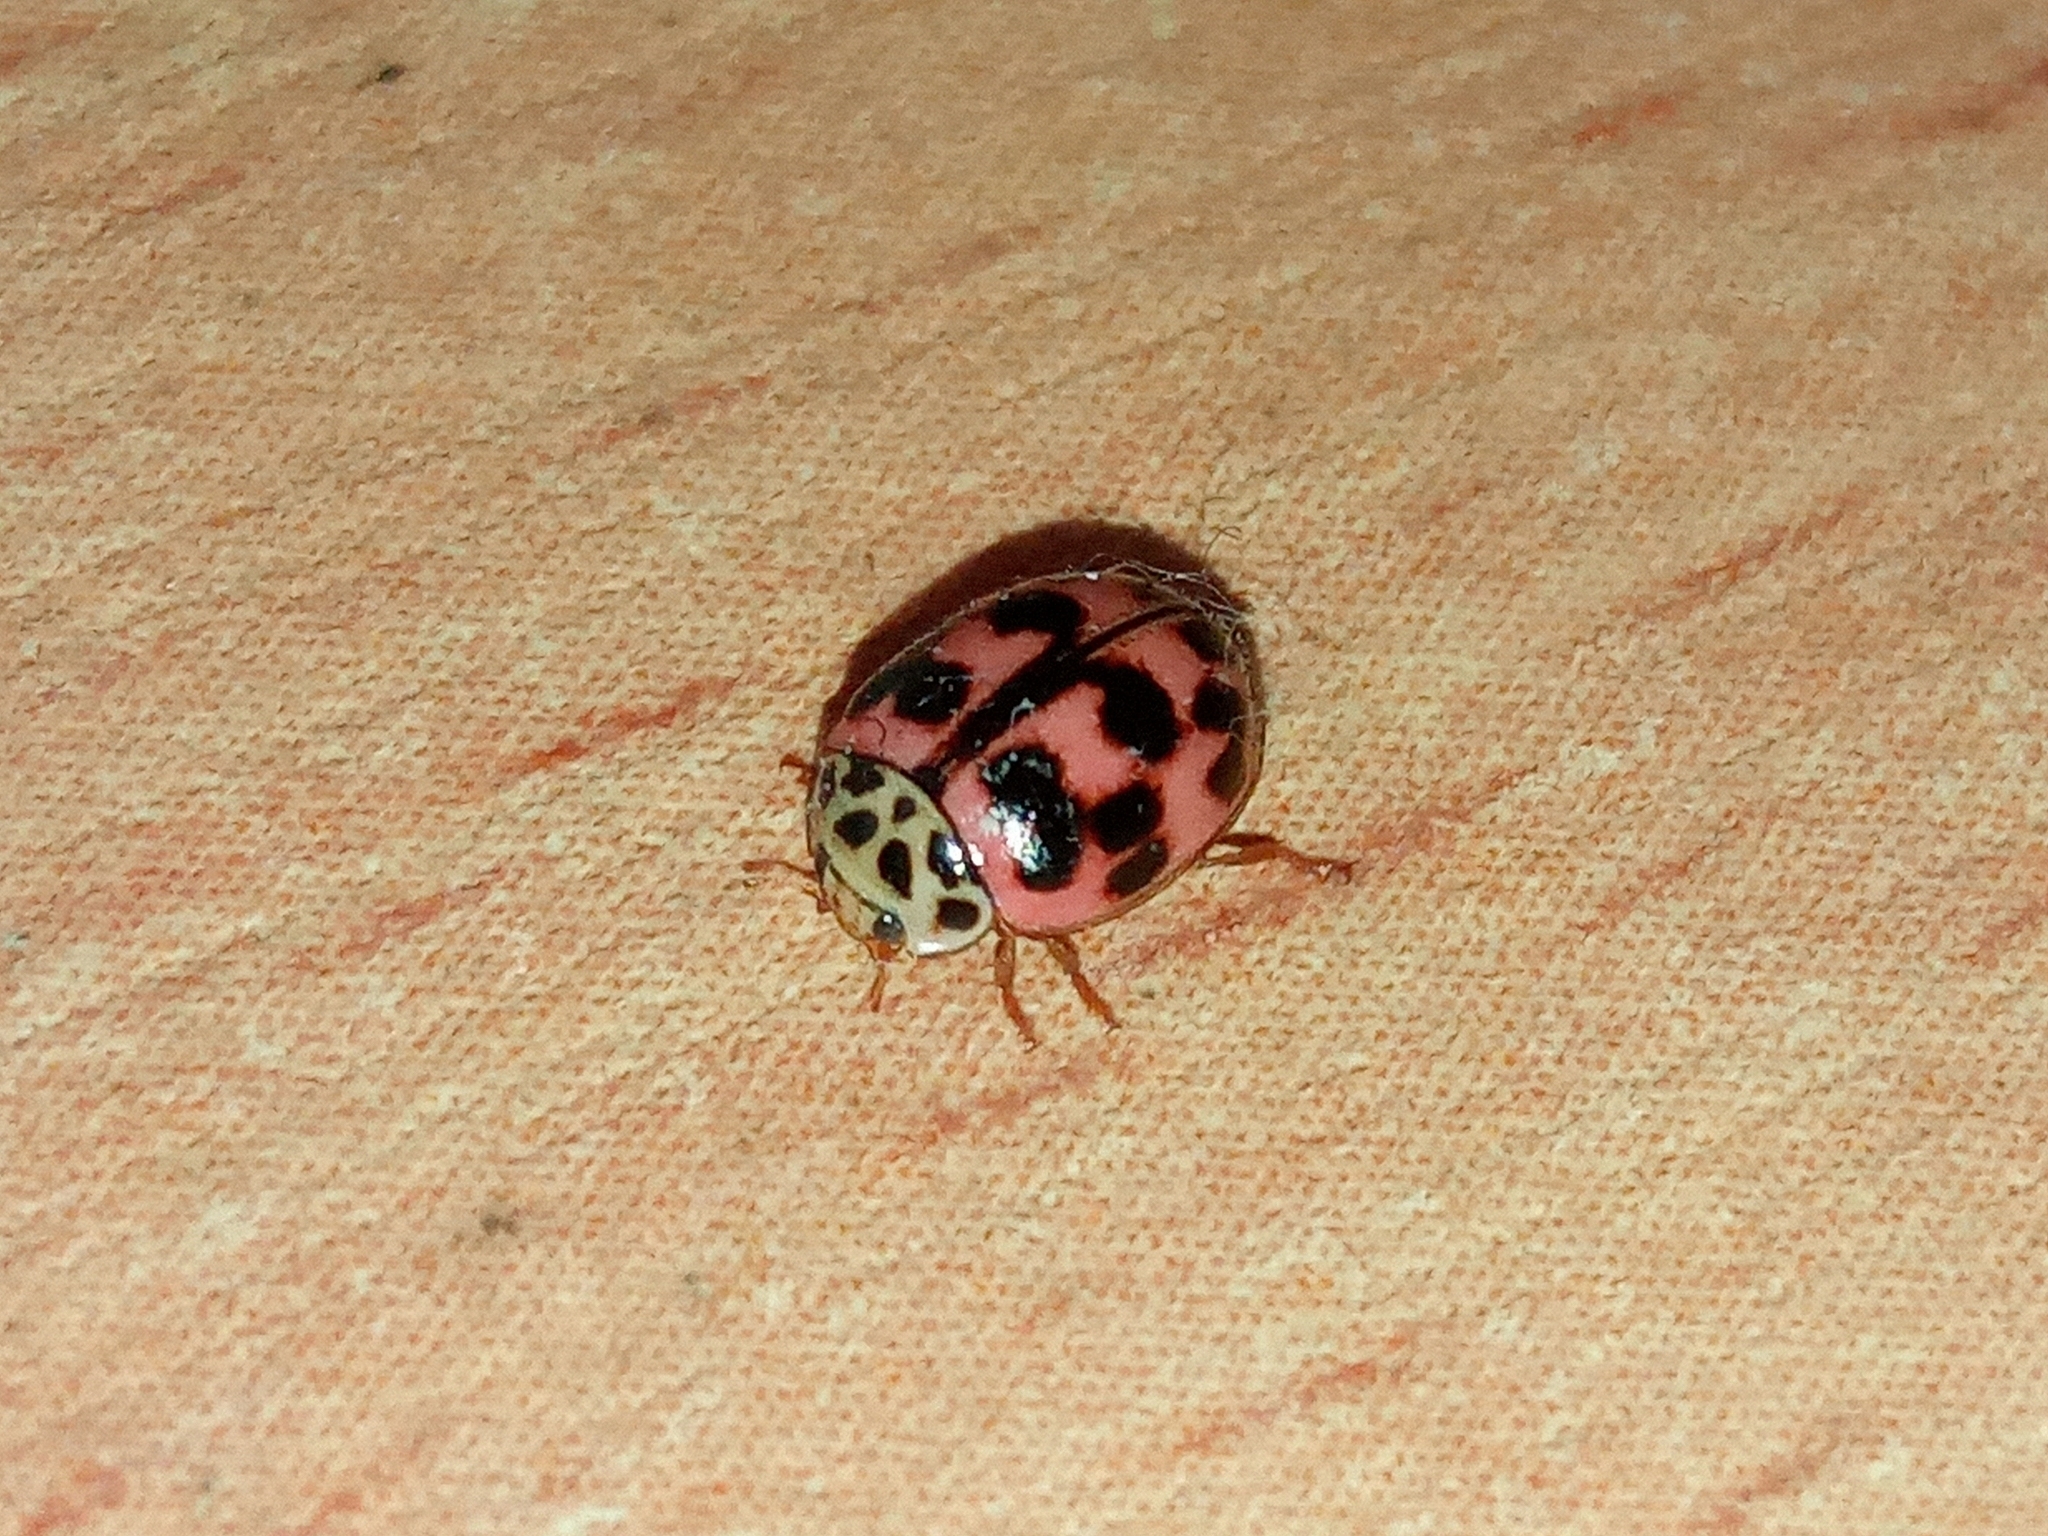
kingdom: Animalia
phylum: Arthropoda
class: Insecta
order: Coleoptera
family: Coccinellidae
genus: Oenopia
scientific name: Oenopia conglobata
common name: Ladybird beetle
